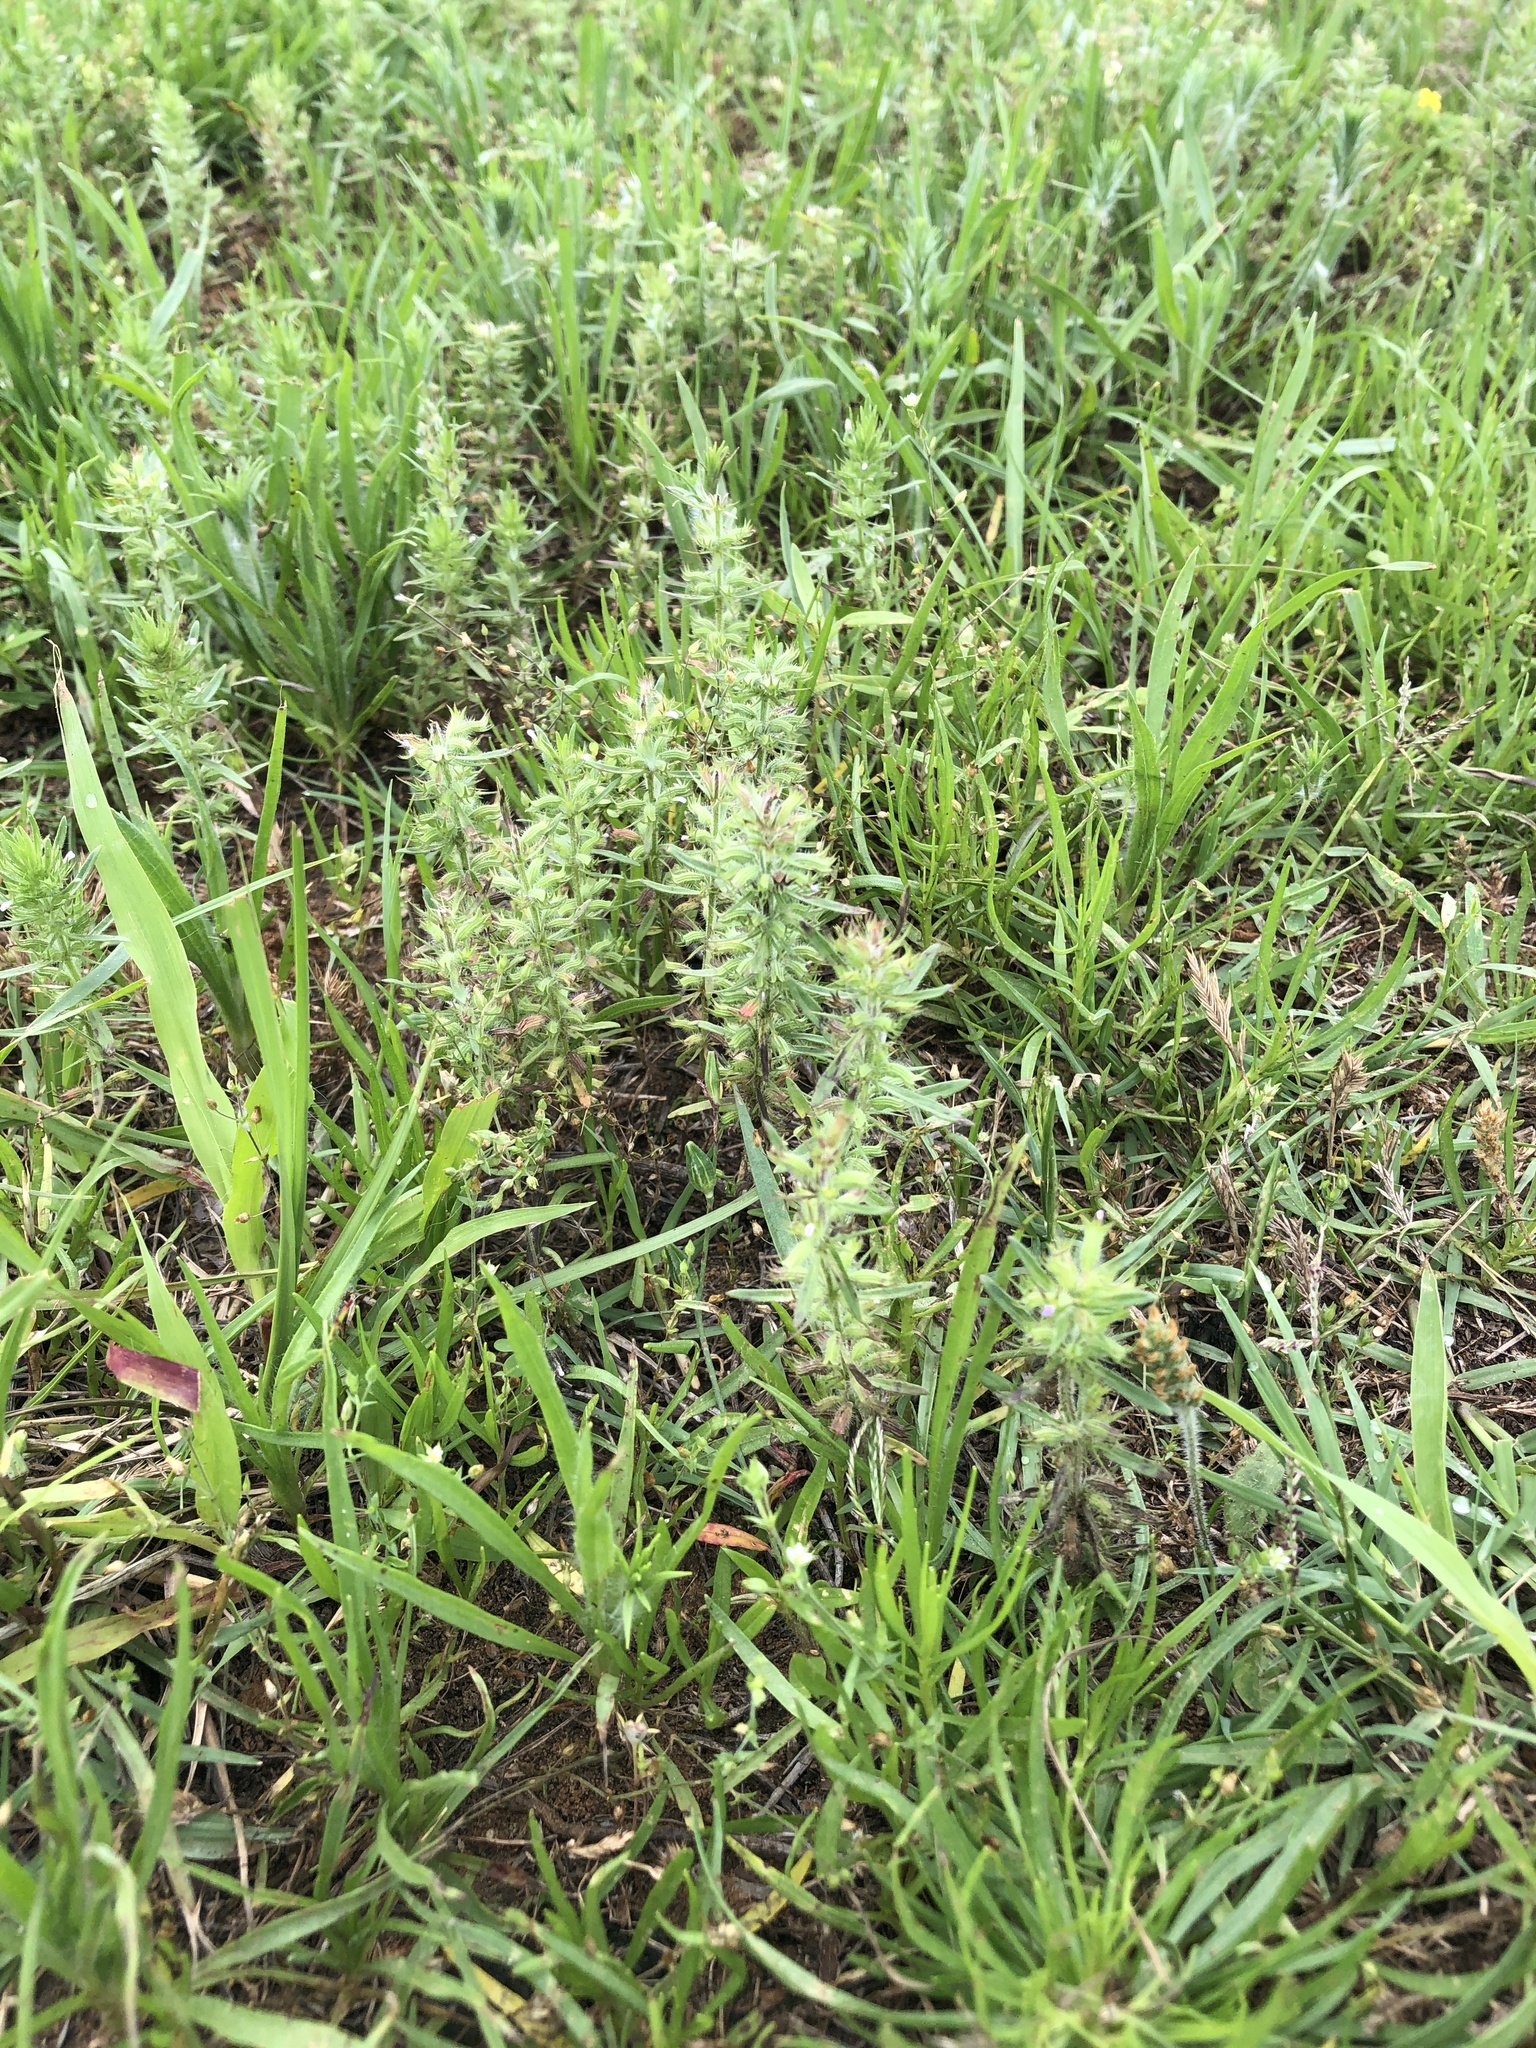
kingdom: Plantae
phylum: Tracheophyta
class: Magnoliopsida
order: Lamiales
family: Lamiaceae
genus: Hedeoma
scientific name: Hedeoma hispida
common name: Mock pennyroyal
